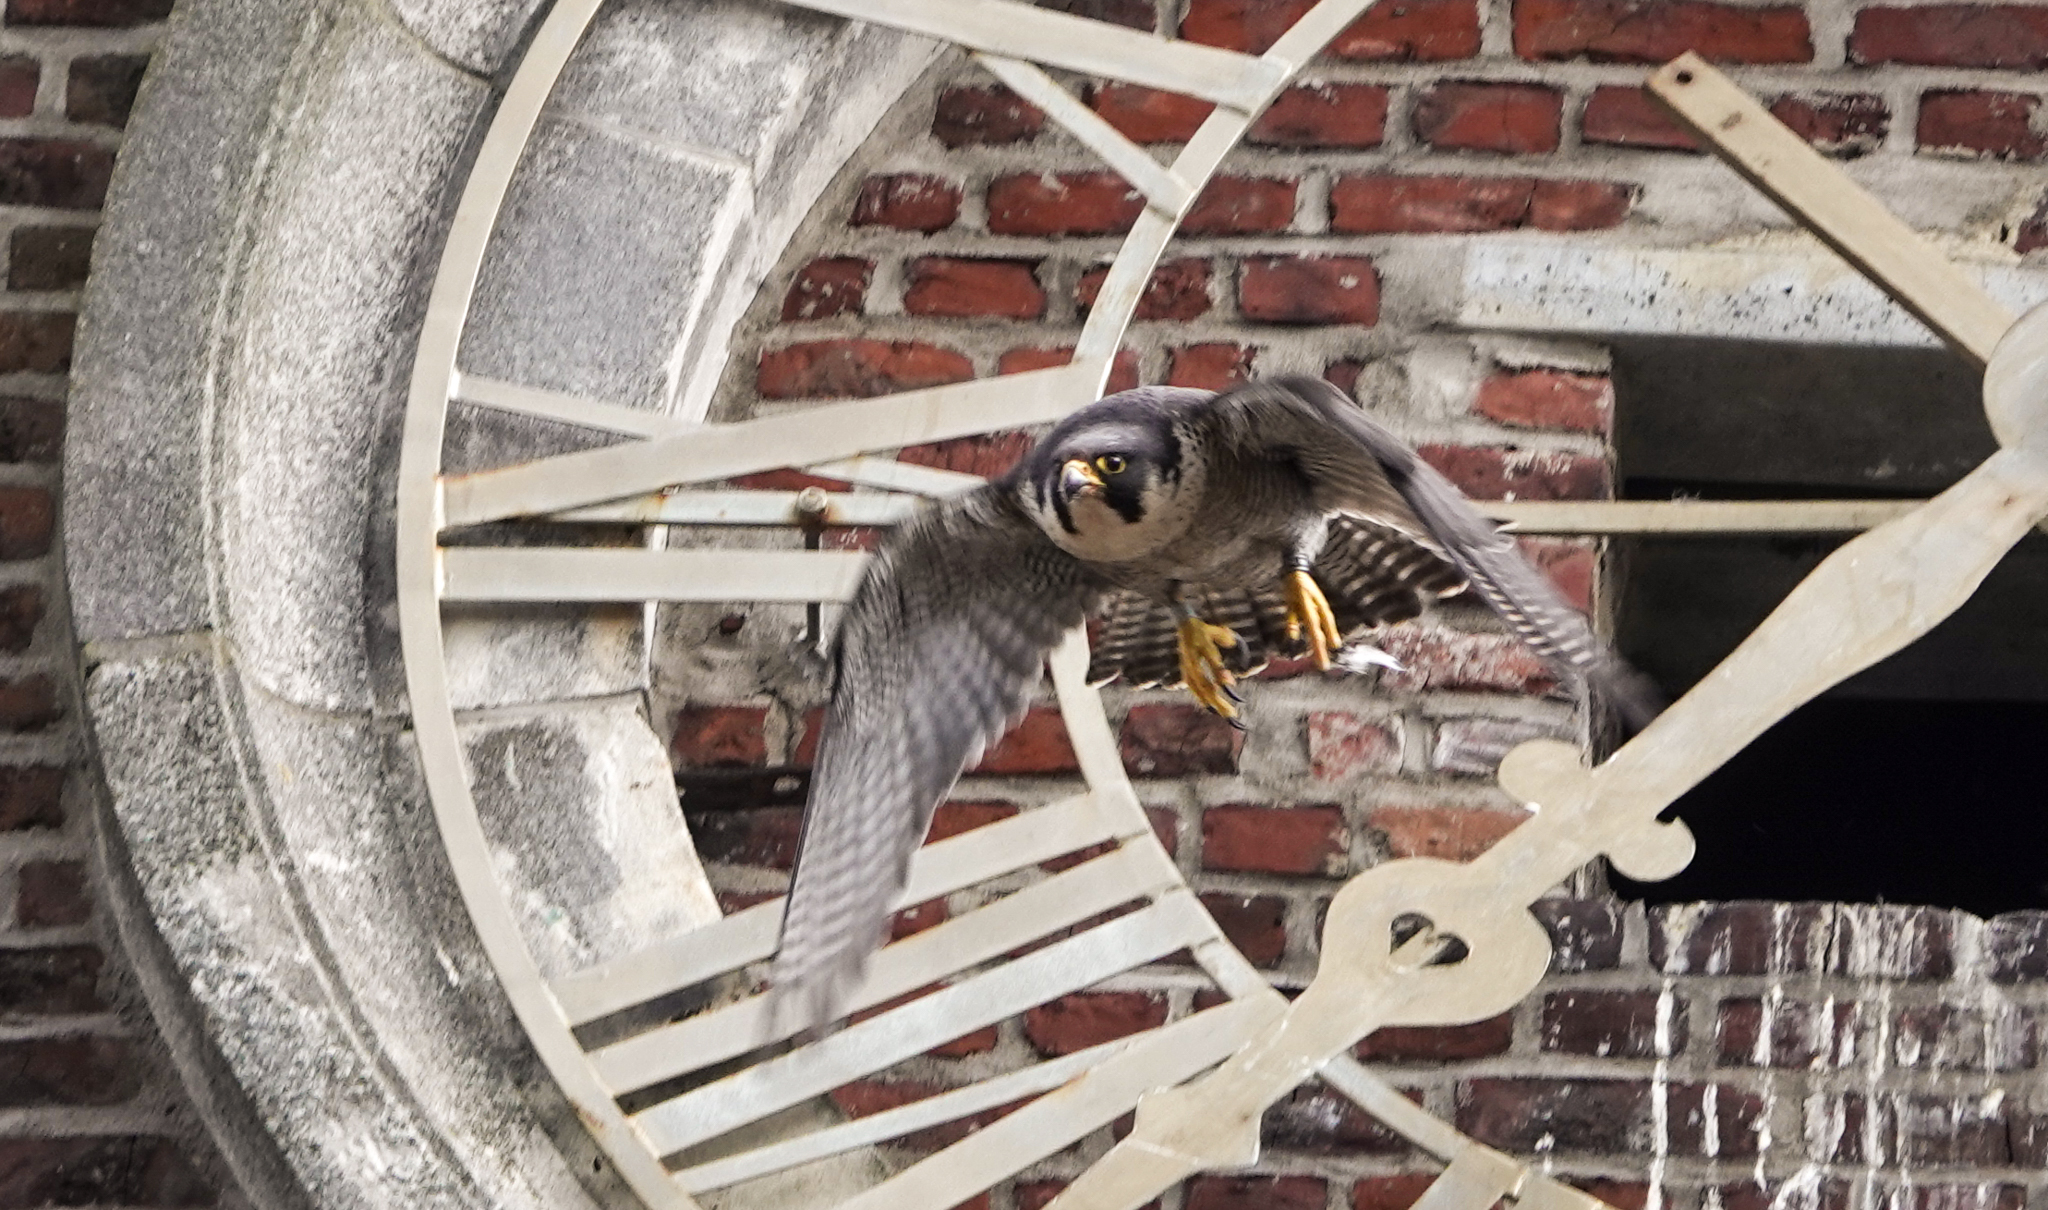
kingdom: Animalia
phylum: Chordata
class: Aves
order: Falconiformes
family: Falconidae
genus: Falco
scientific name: Falco peregrinus
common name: Peregrine falcon
